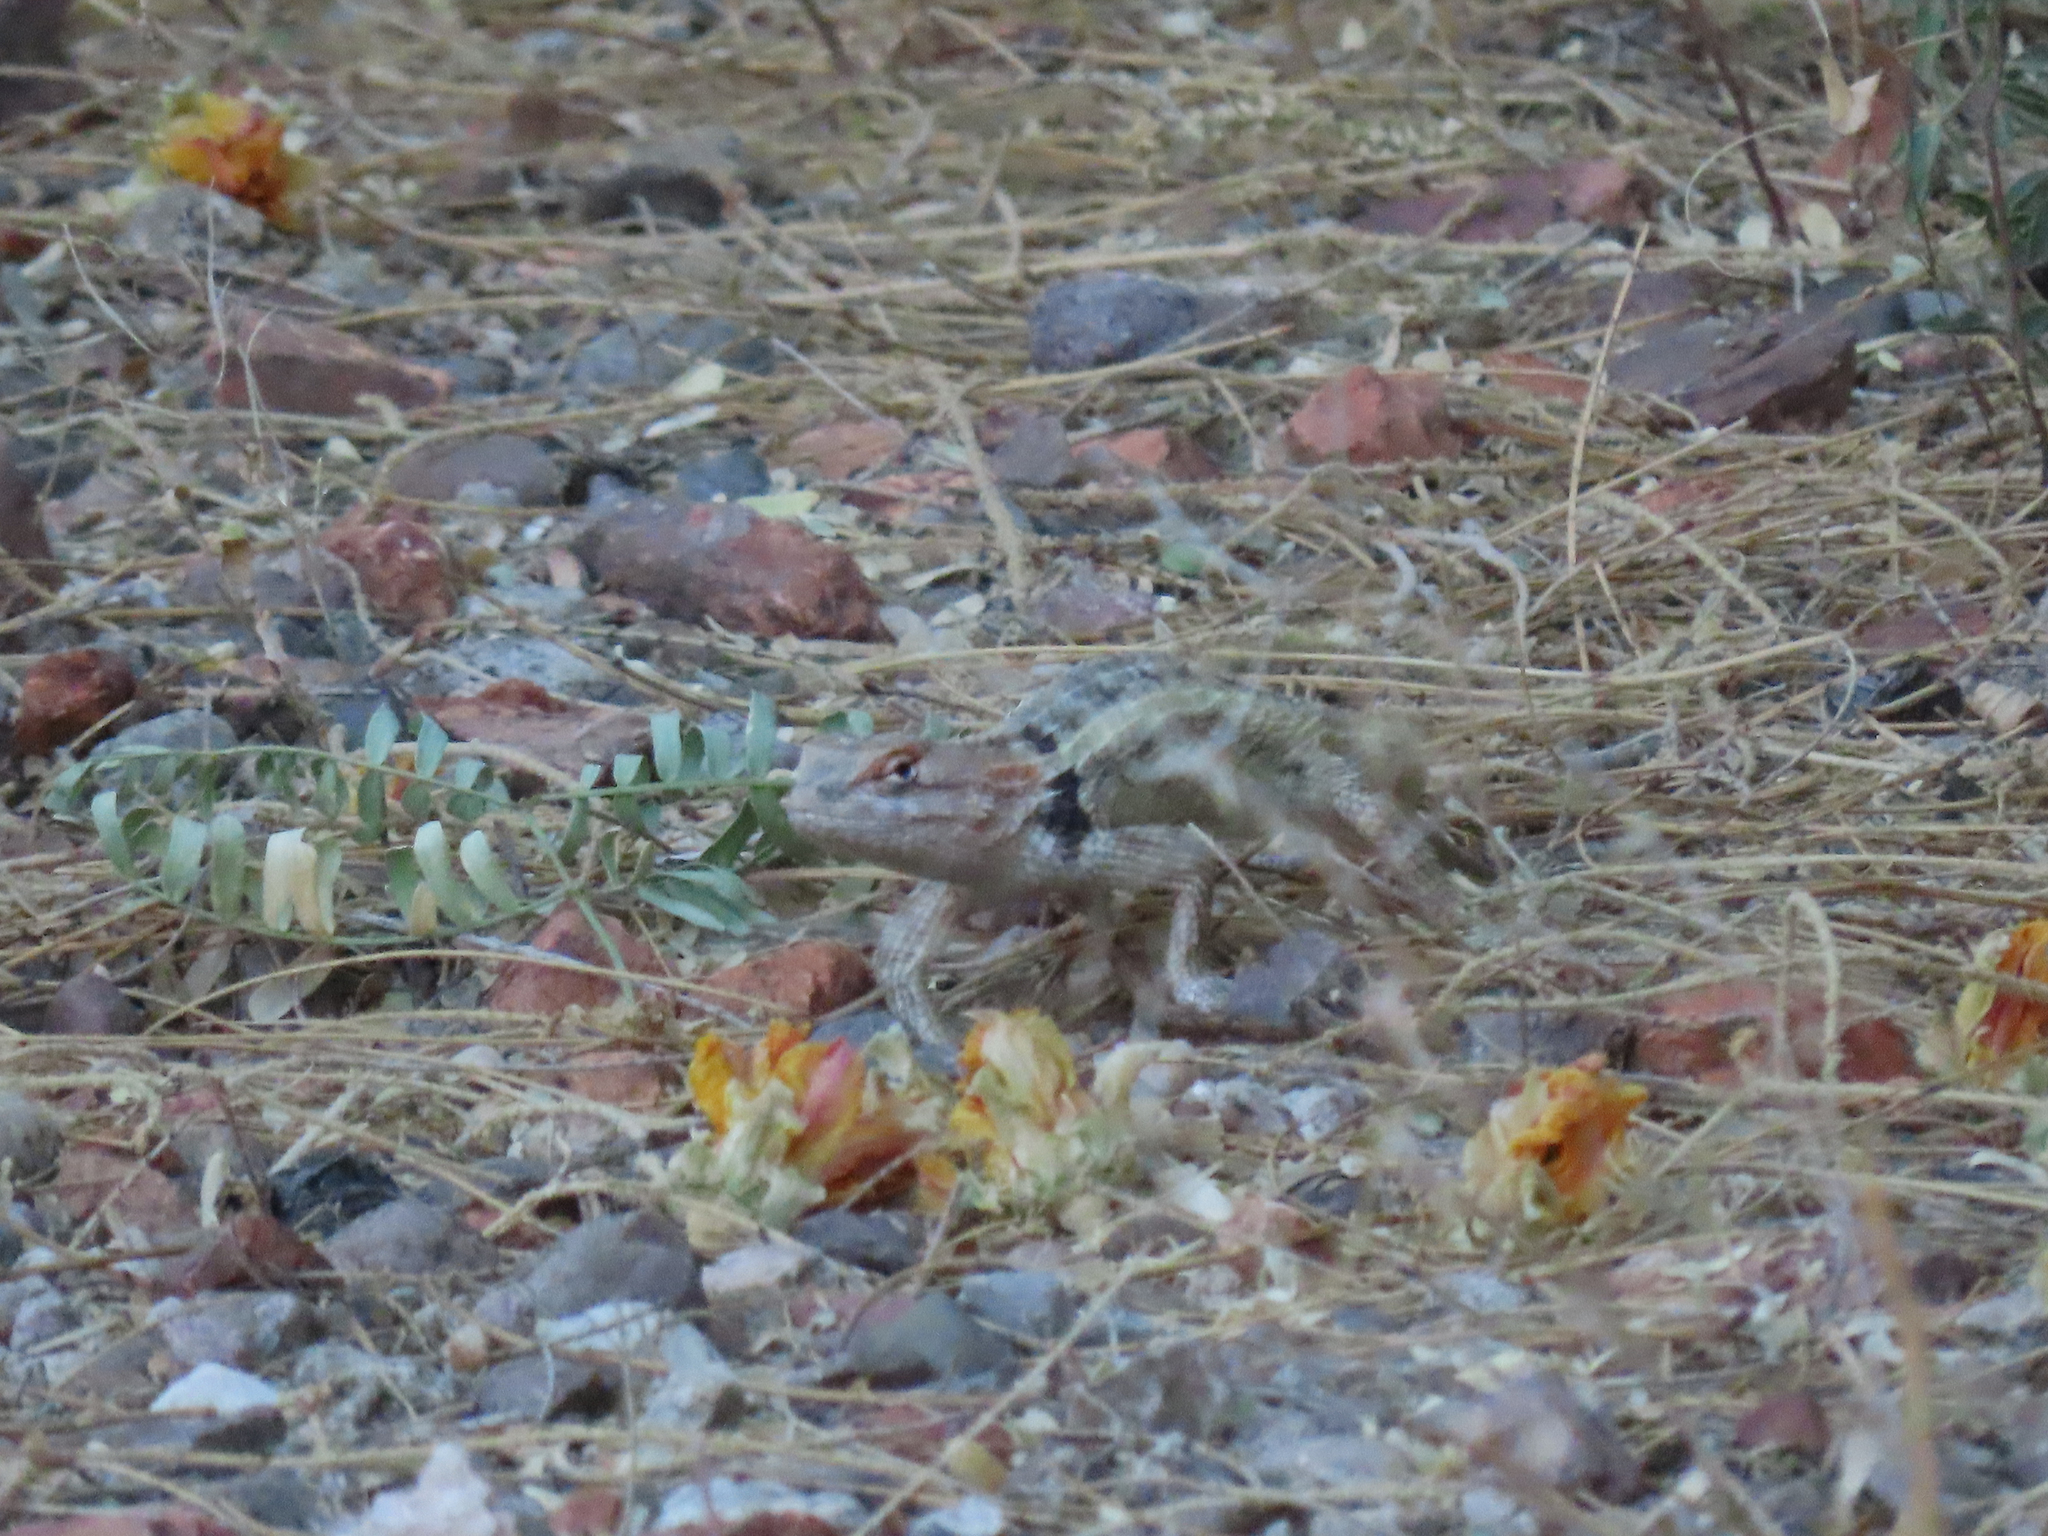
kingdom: Animalia
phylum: Chordata
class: Squamata
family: Phrynosomatidae
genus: Sceloporus
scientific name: Sceloporus magister
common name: Desert spiny lizard
